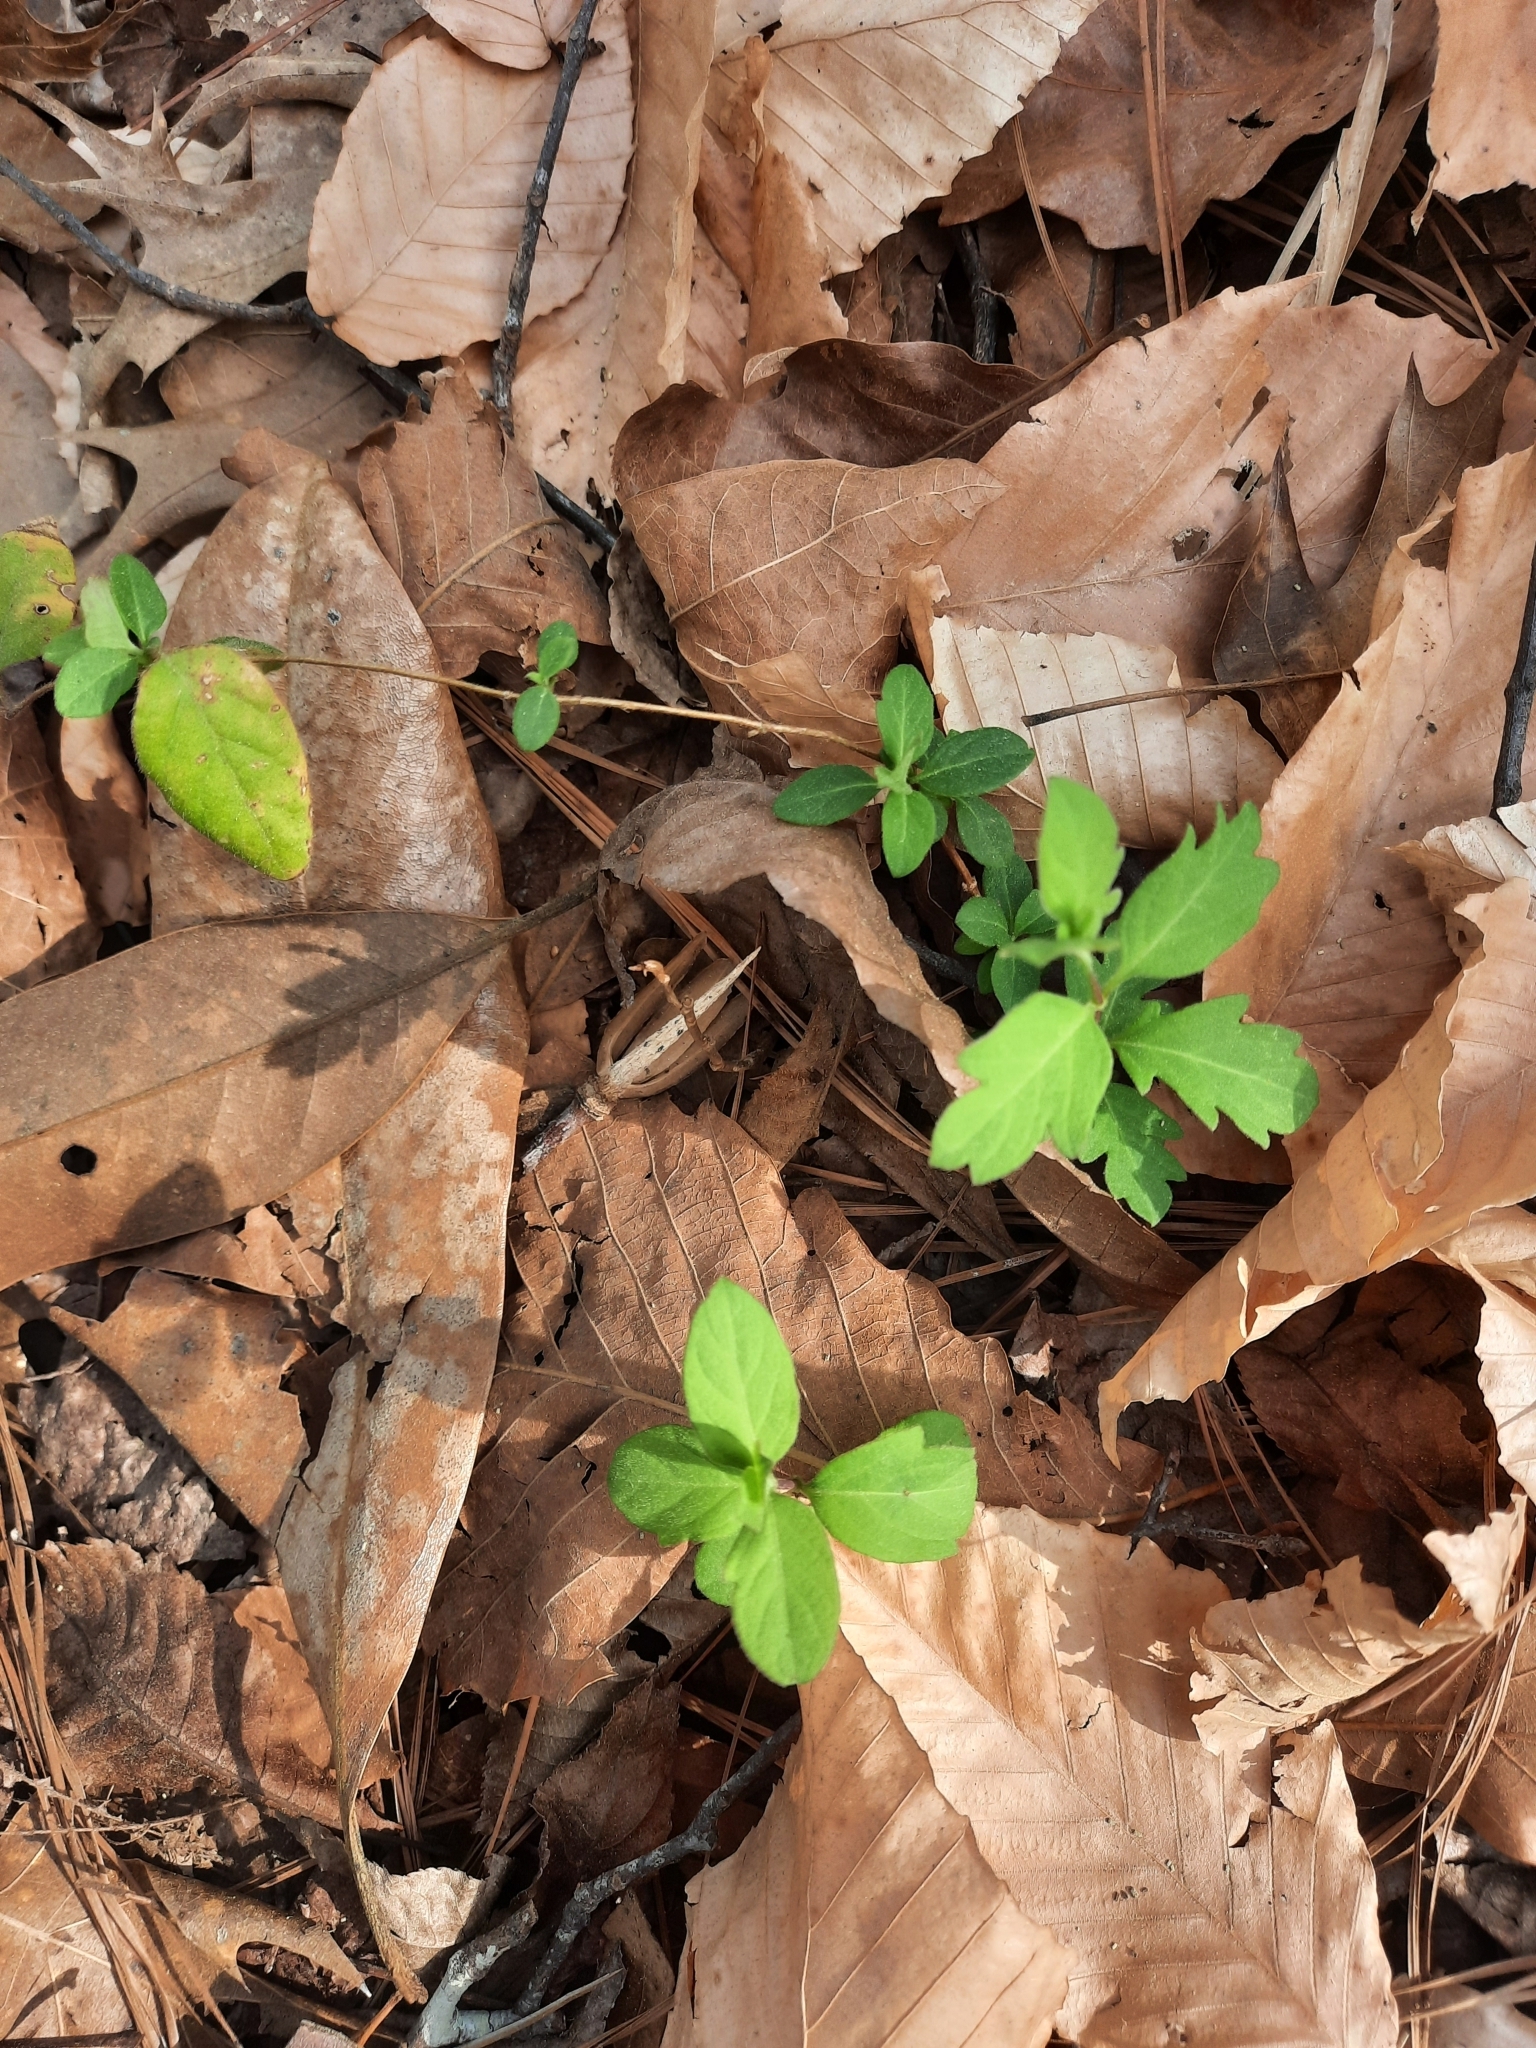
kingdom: Plantae
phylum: Tracheophyta
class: Magnoliopsida
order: Dipsacales
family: Caprifoliaceae
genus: Lonicera
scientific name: Lonicera japonica
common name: Japanese honeysuckle
